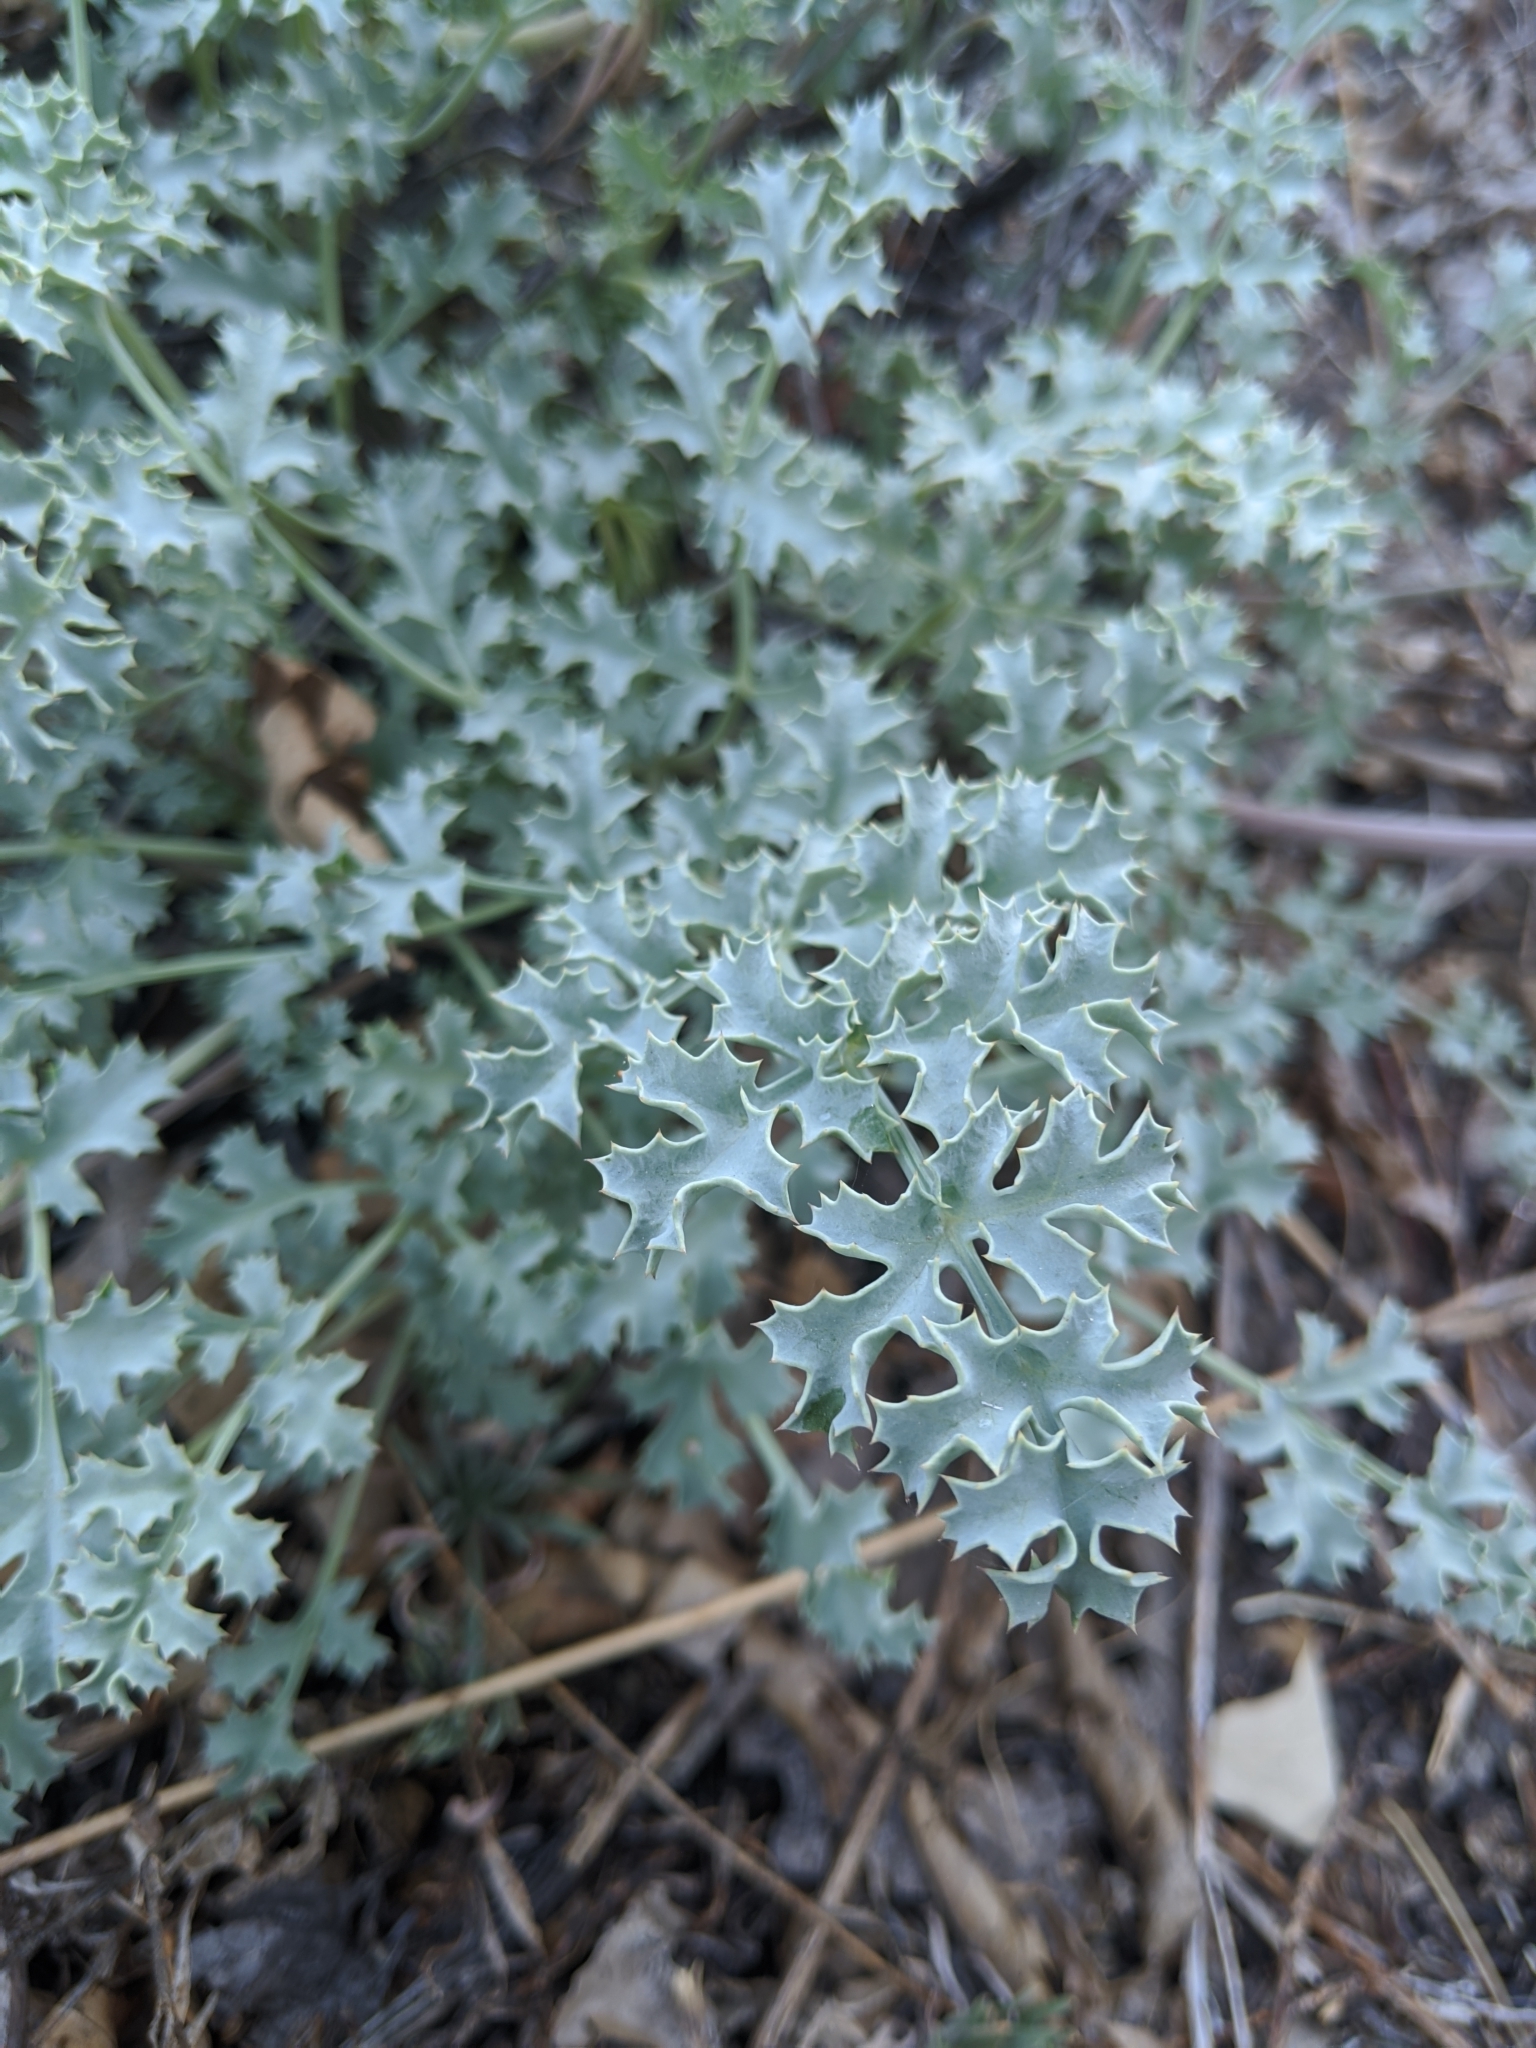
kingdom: Plantae
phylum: Tracheophyta
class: Magnoliopsida
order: Apiales
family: Apiaceae
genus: Lomatium
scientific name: Lomatium rigidum
